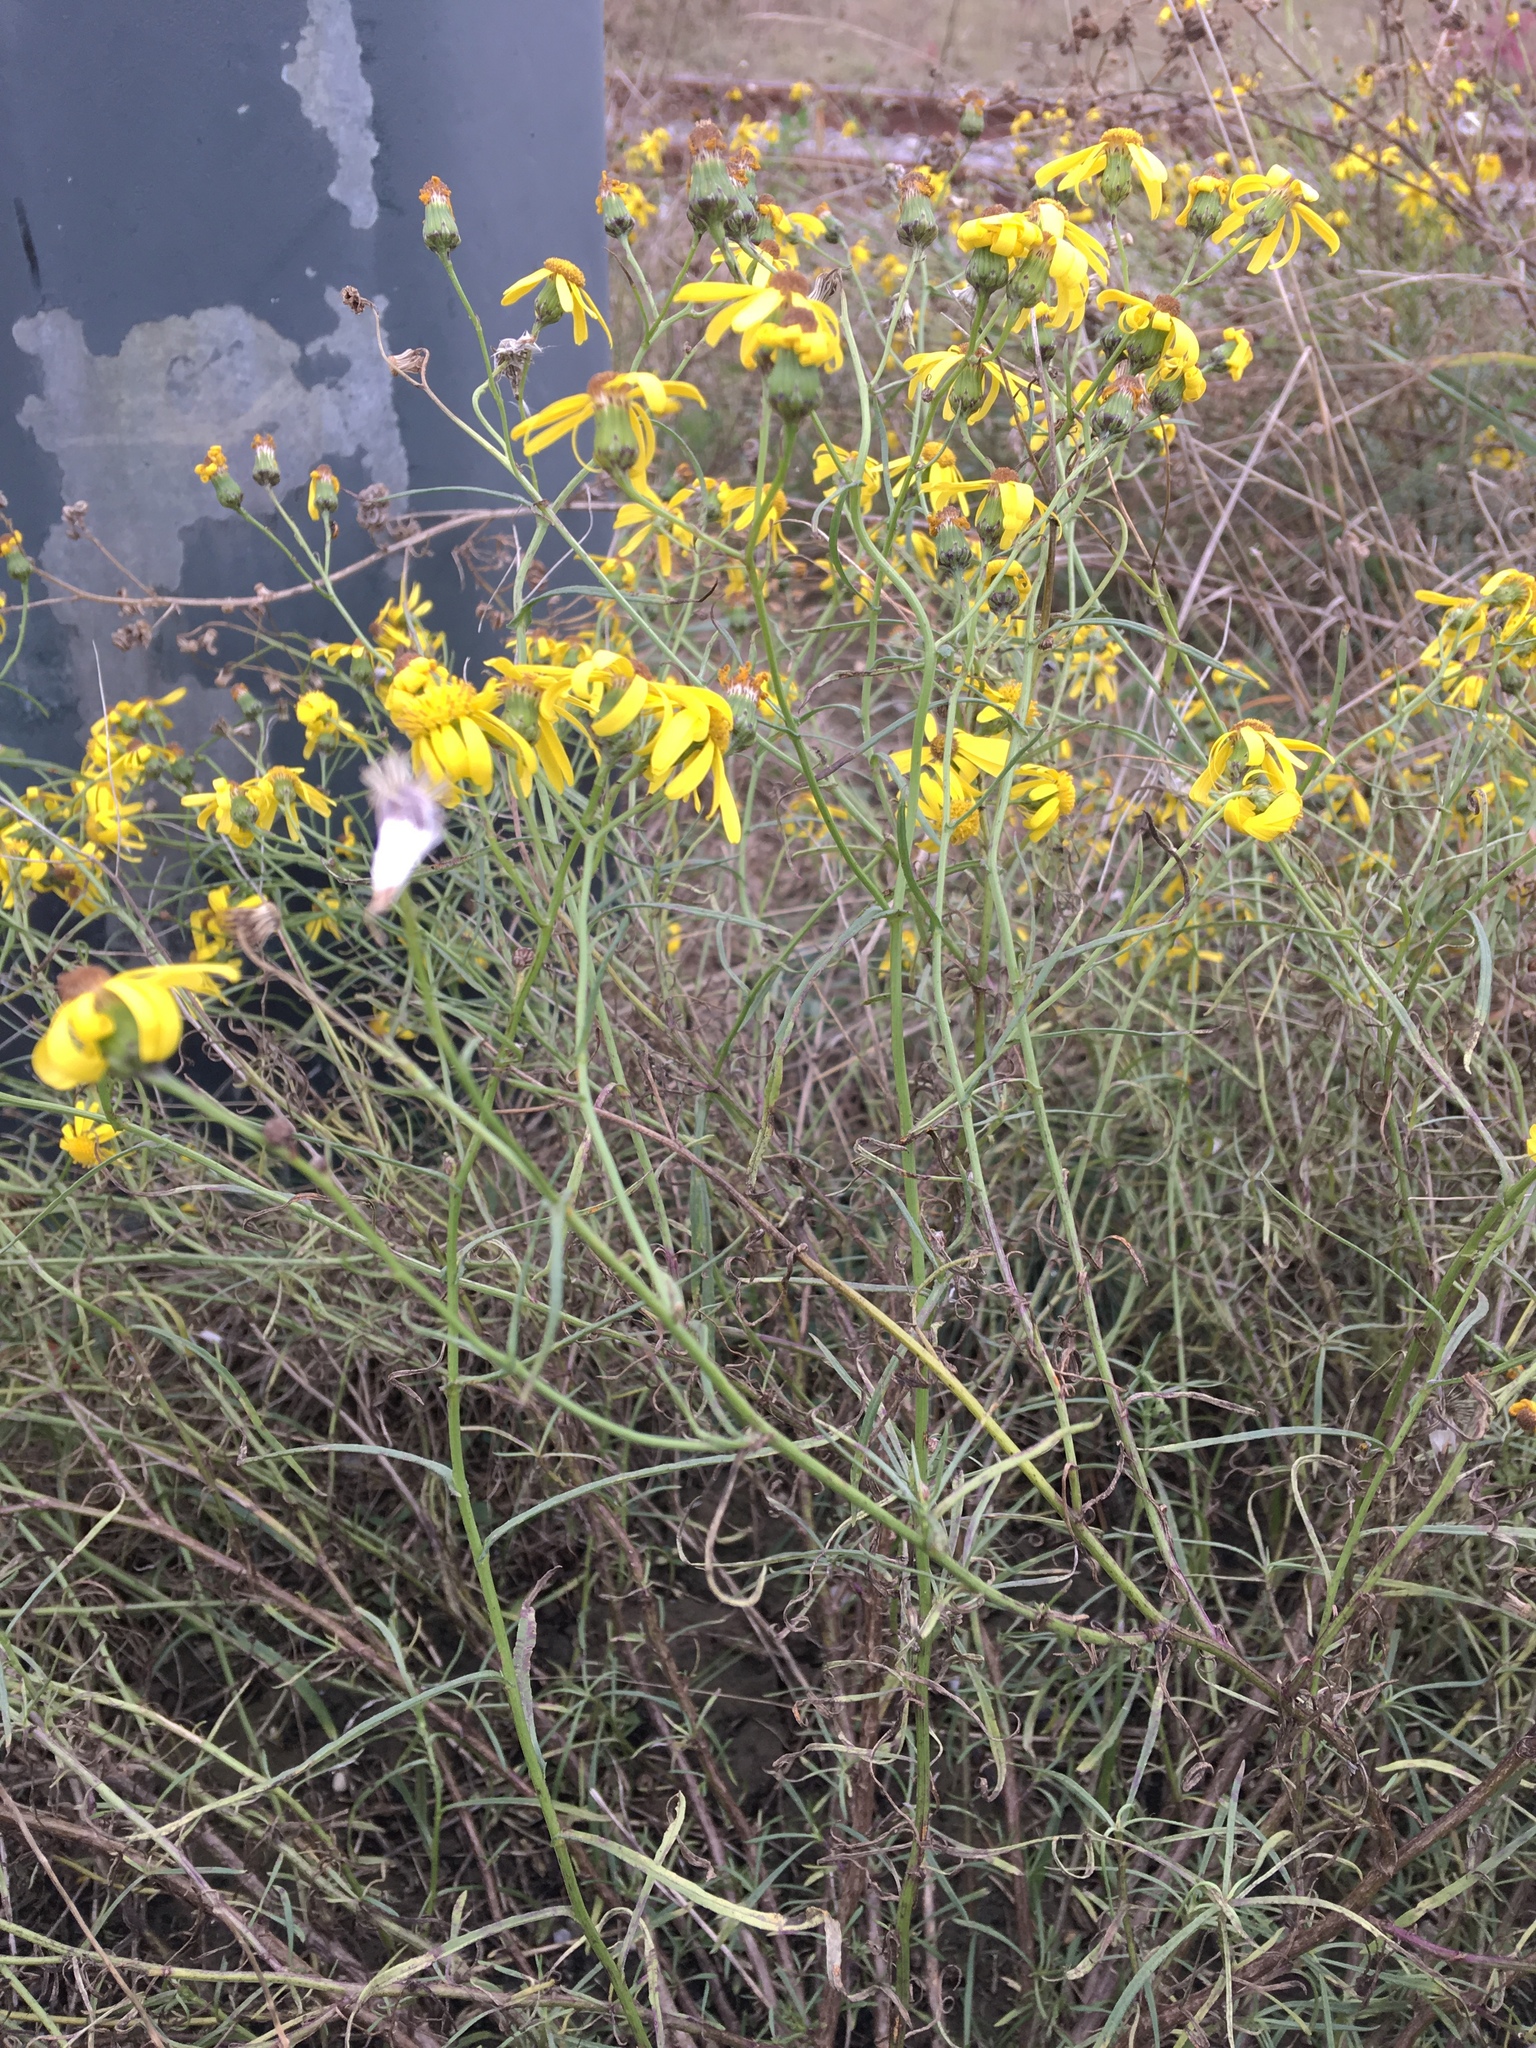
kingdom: Plantae
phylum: Tracheophyta
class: Magnoliopsida
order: Asterales
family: Asteraceae
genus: Senecio
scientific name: Senecio inaequidens
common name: Narrow-leaved ragwort
